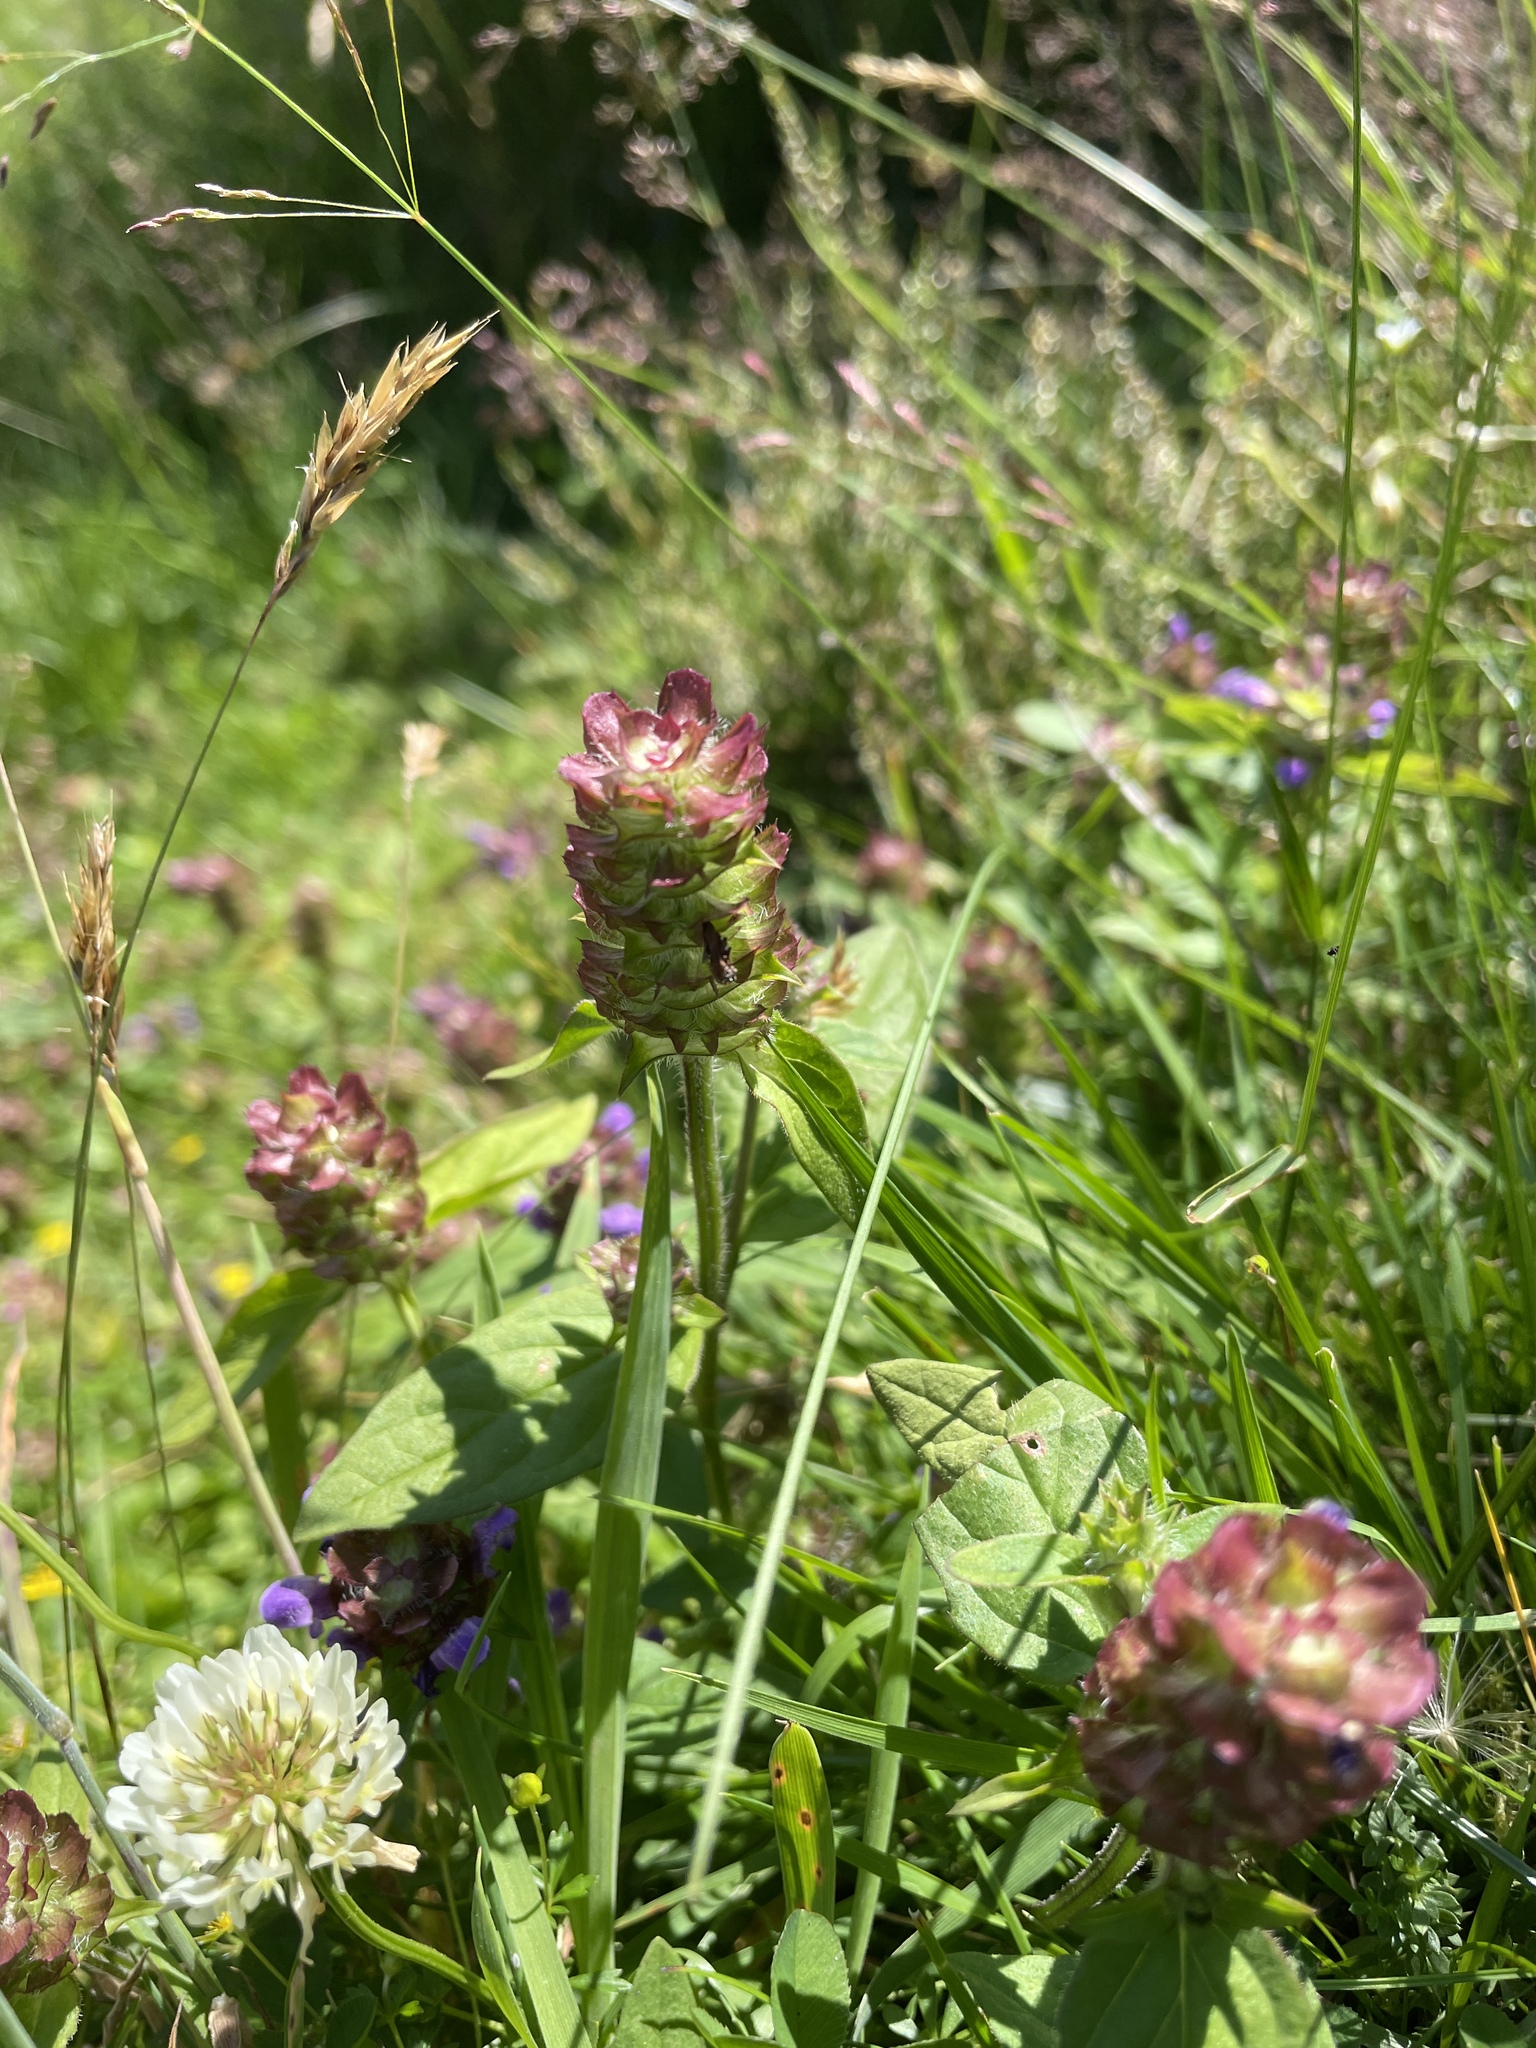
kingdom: Plantae
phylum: Tracheophyta
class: Magnoliopsida
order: Lamiales
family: Lamiaceae
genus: Prunella
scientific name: Prunella vulgaris
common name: Heal-all
